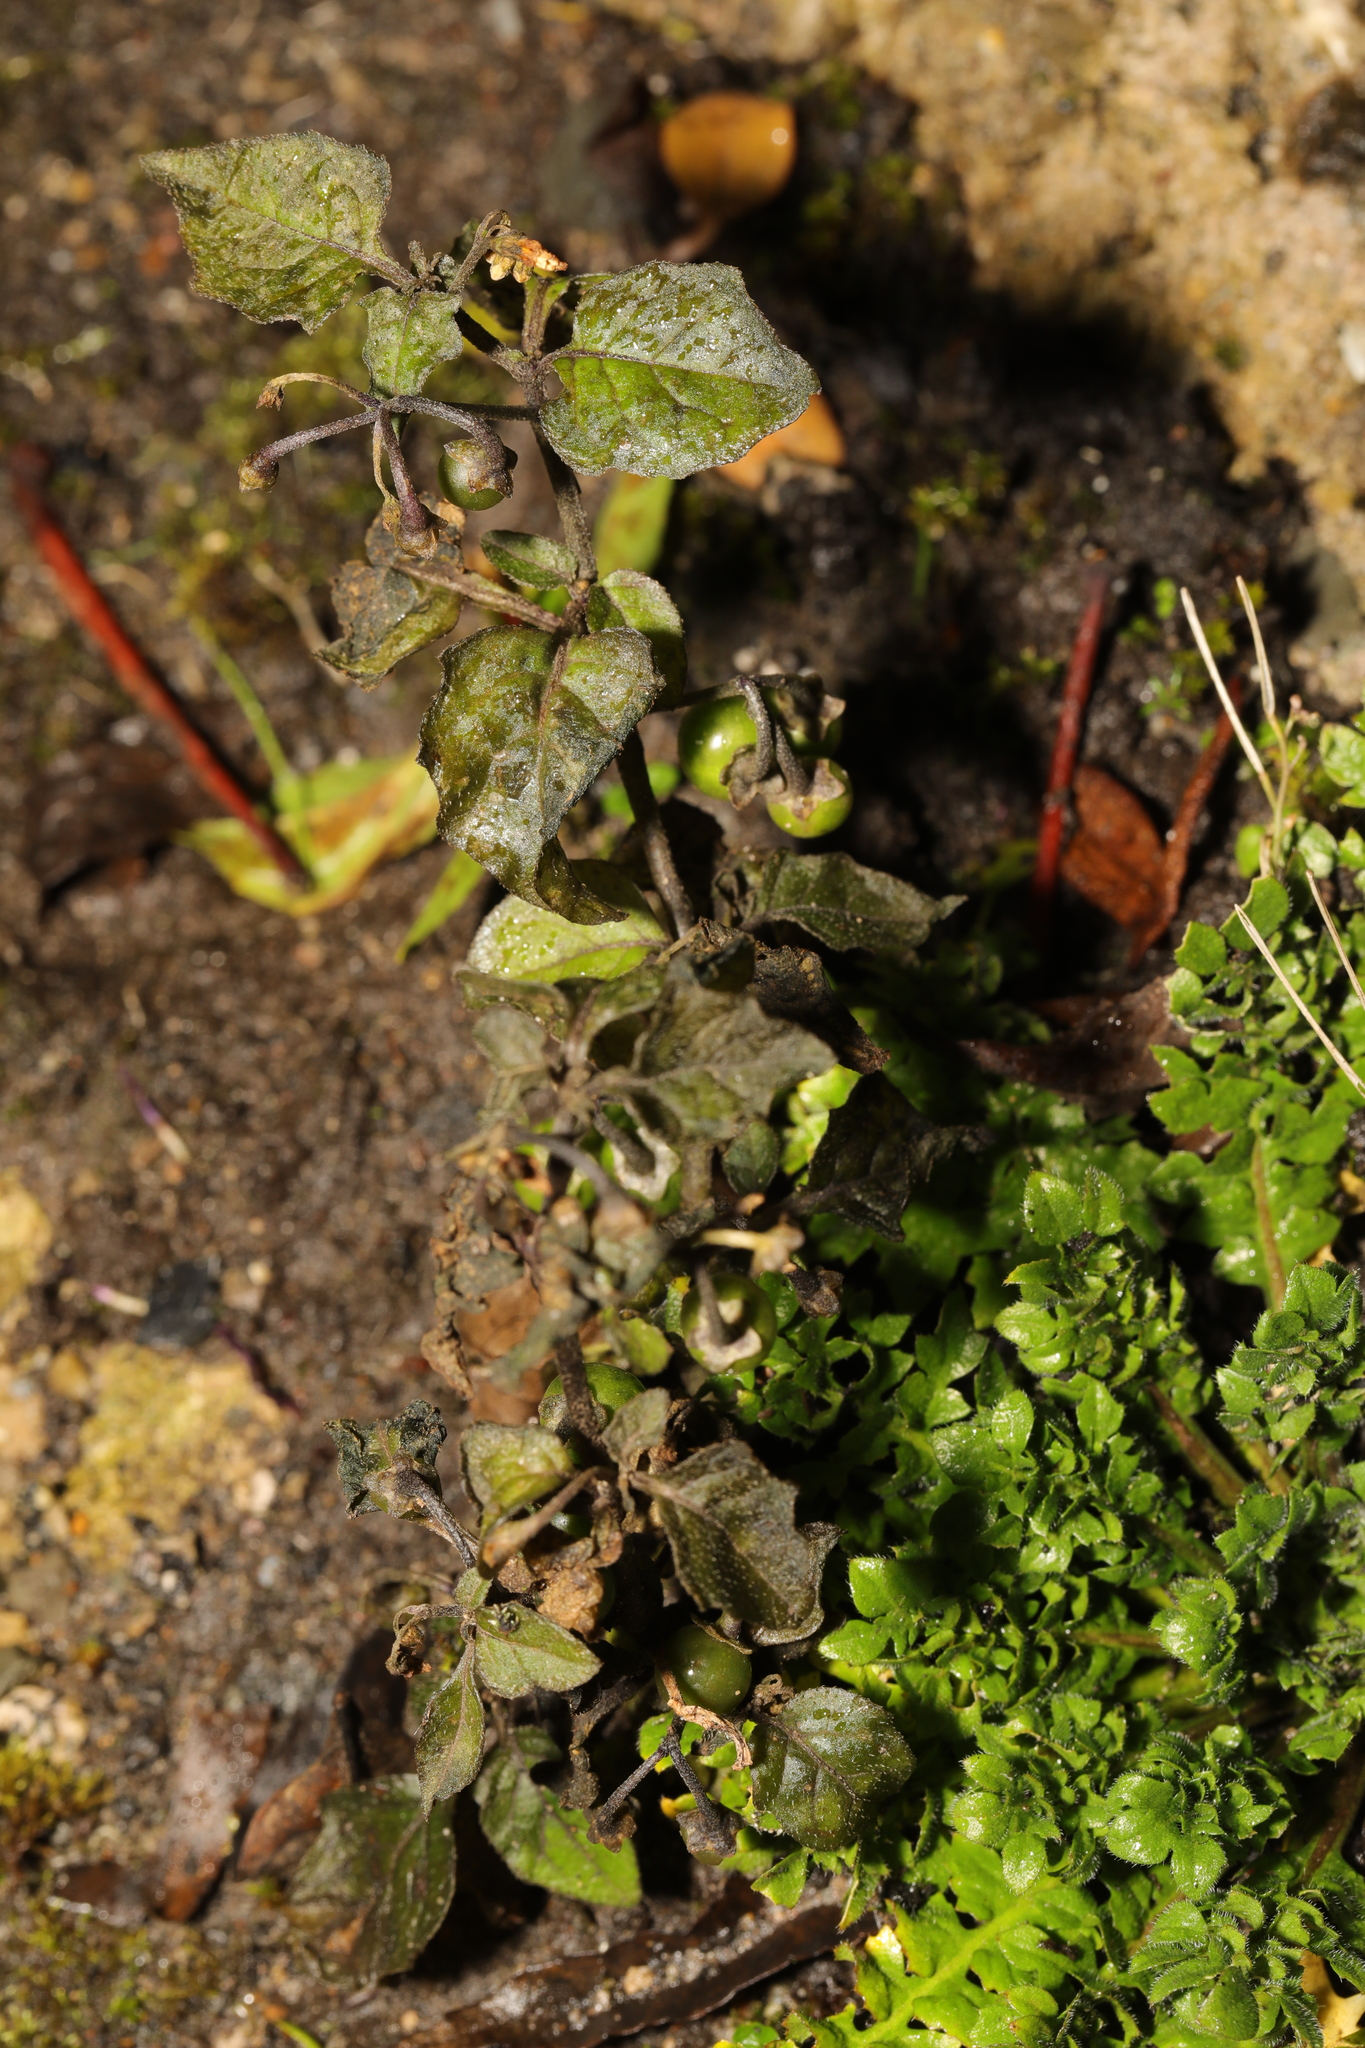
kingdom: Plantae
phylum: Tracheophyta
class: Magnoliopsida
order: Solanales
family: Solanaceae
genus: Solanum
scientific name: Solanum nigrum
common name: Black nightshade
